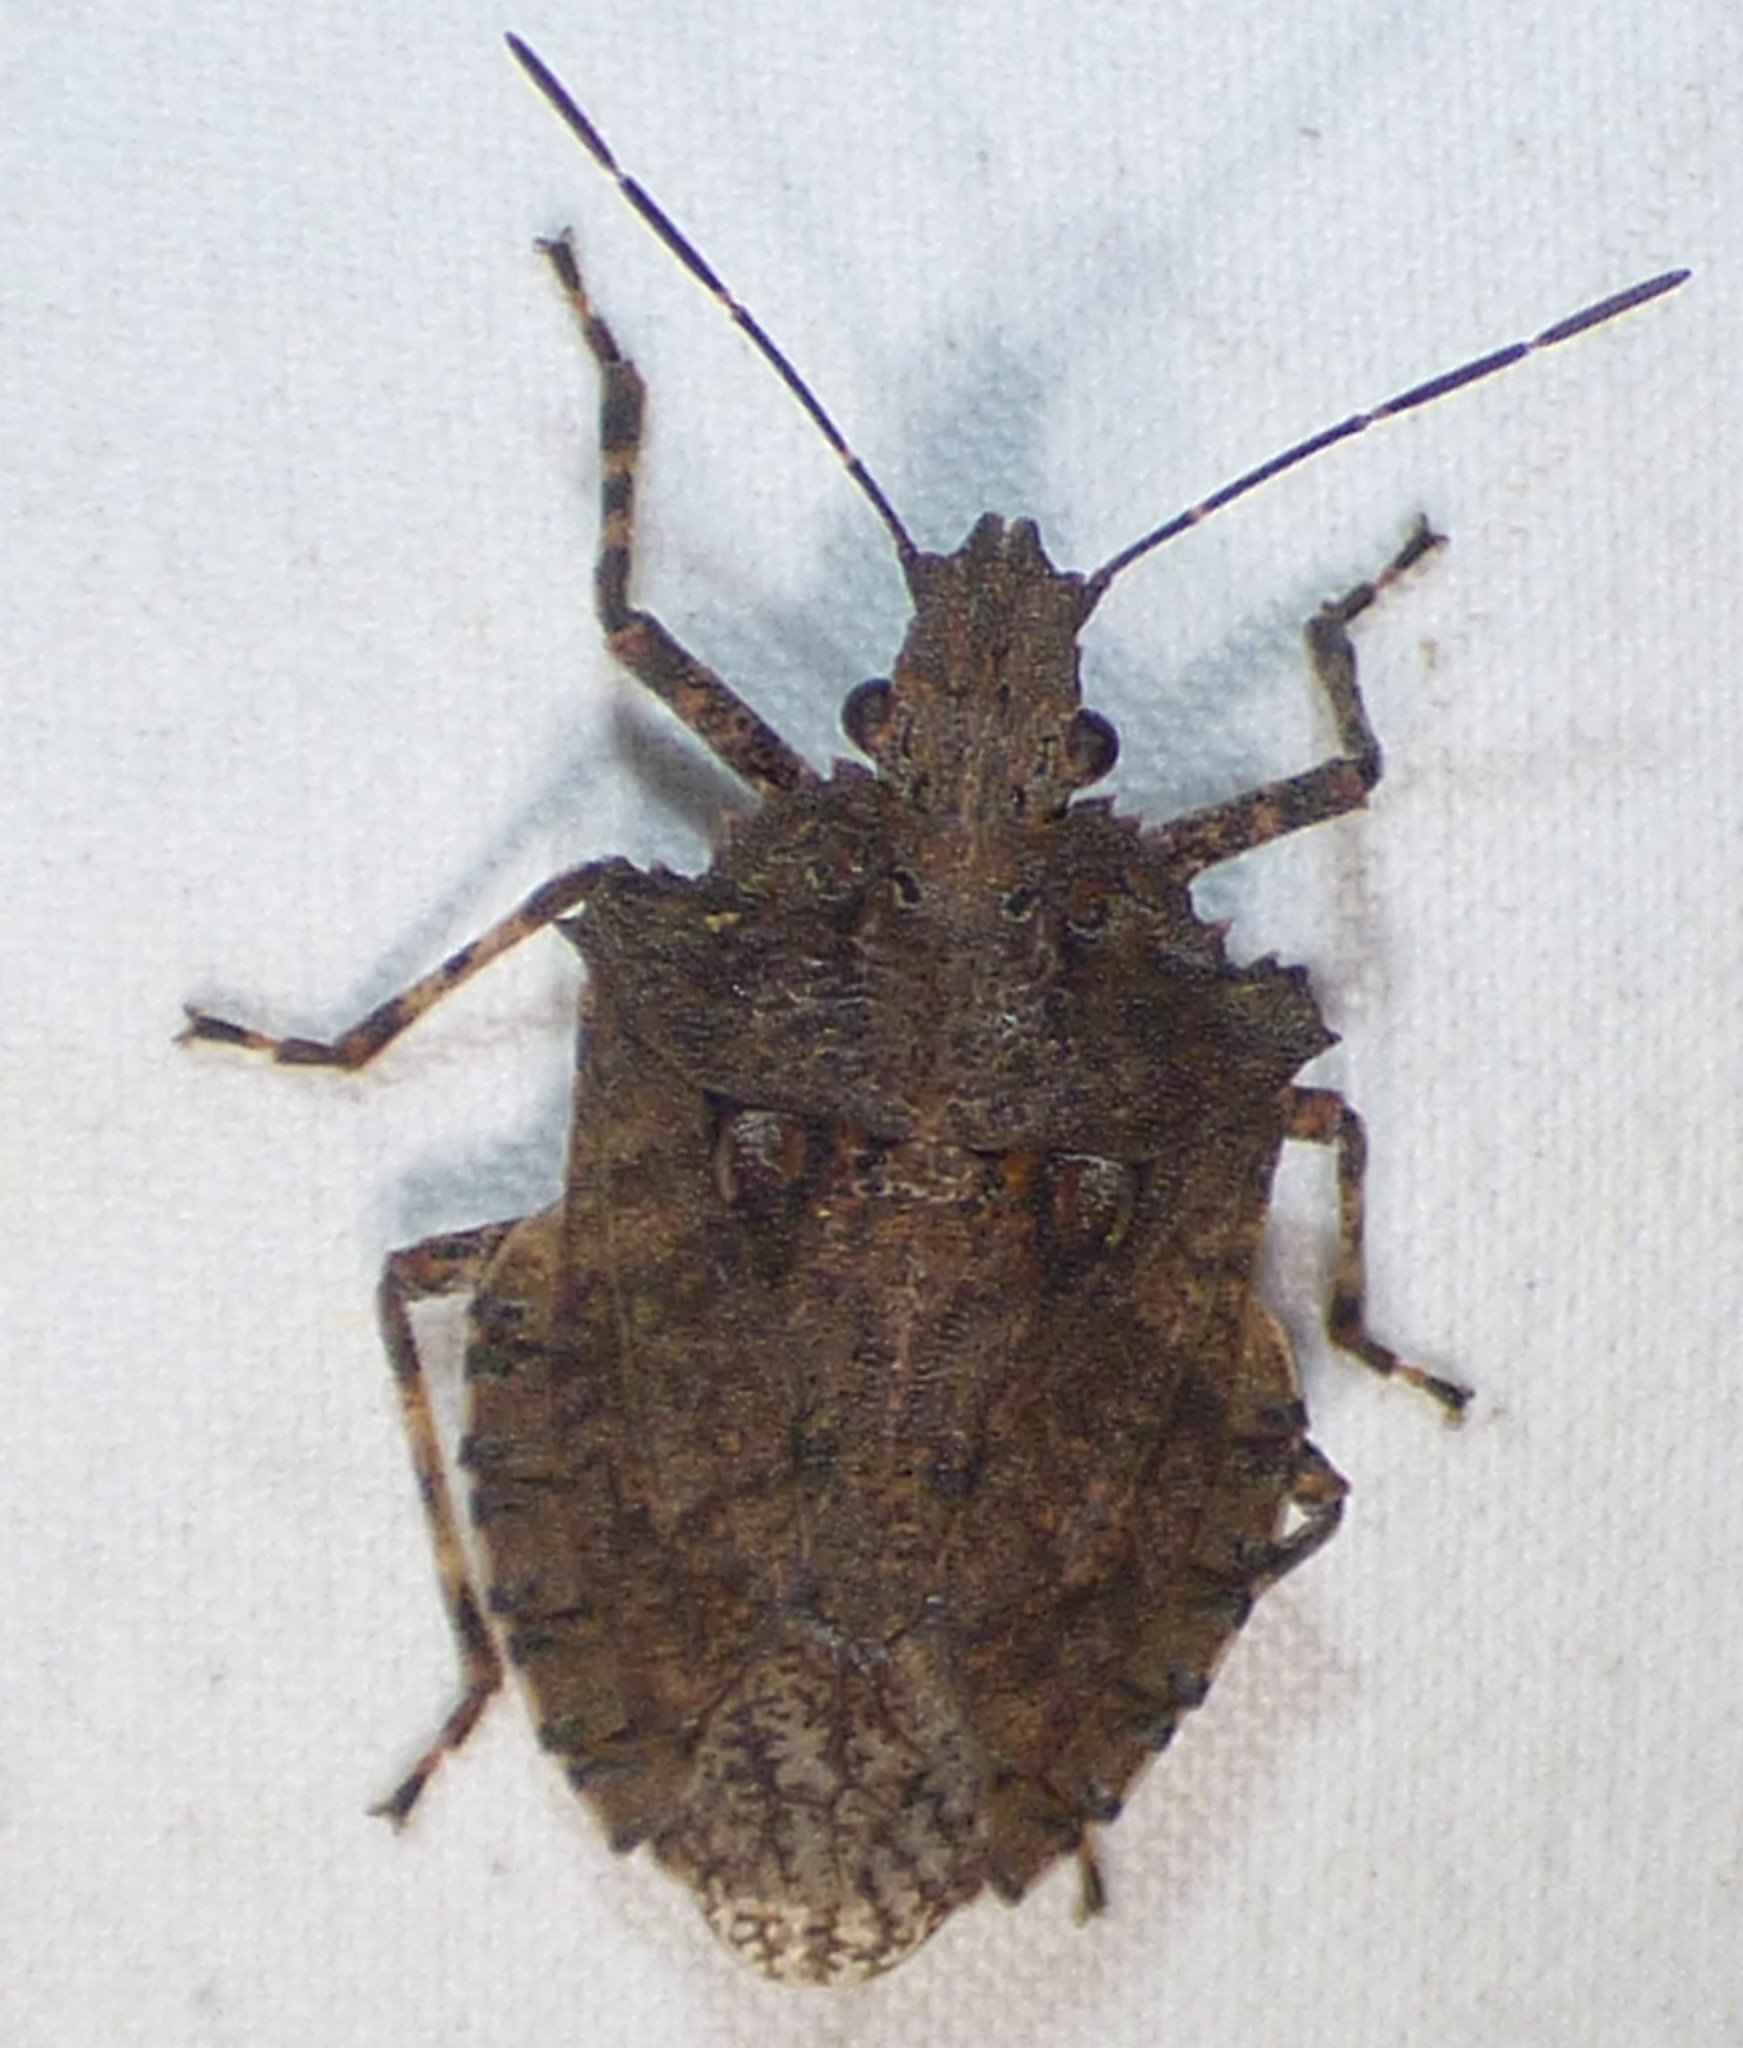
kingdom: Animalia
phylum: Arthropoda
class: Insecta
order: Hemiptera
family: Pentatomidae
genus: Brochymena
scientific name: Brochymena arborea
